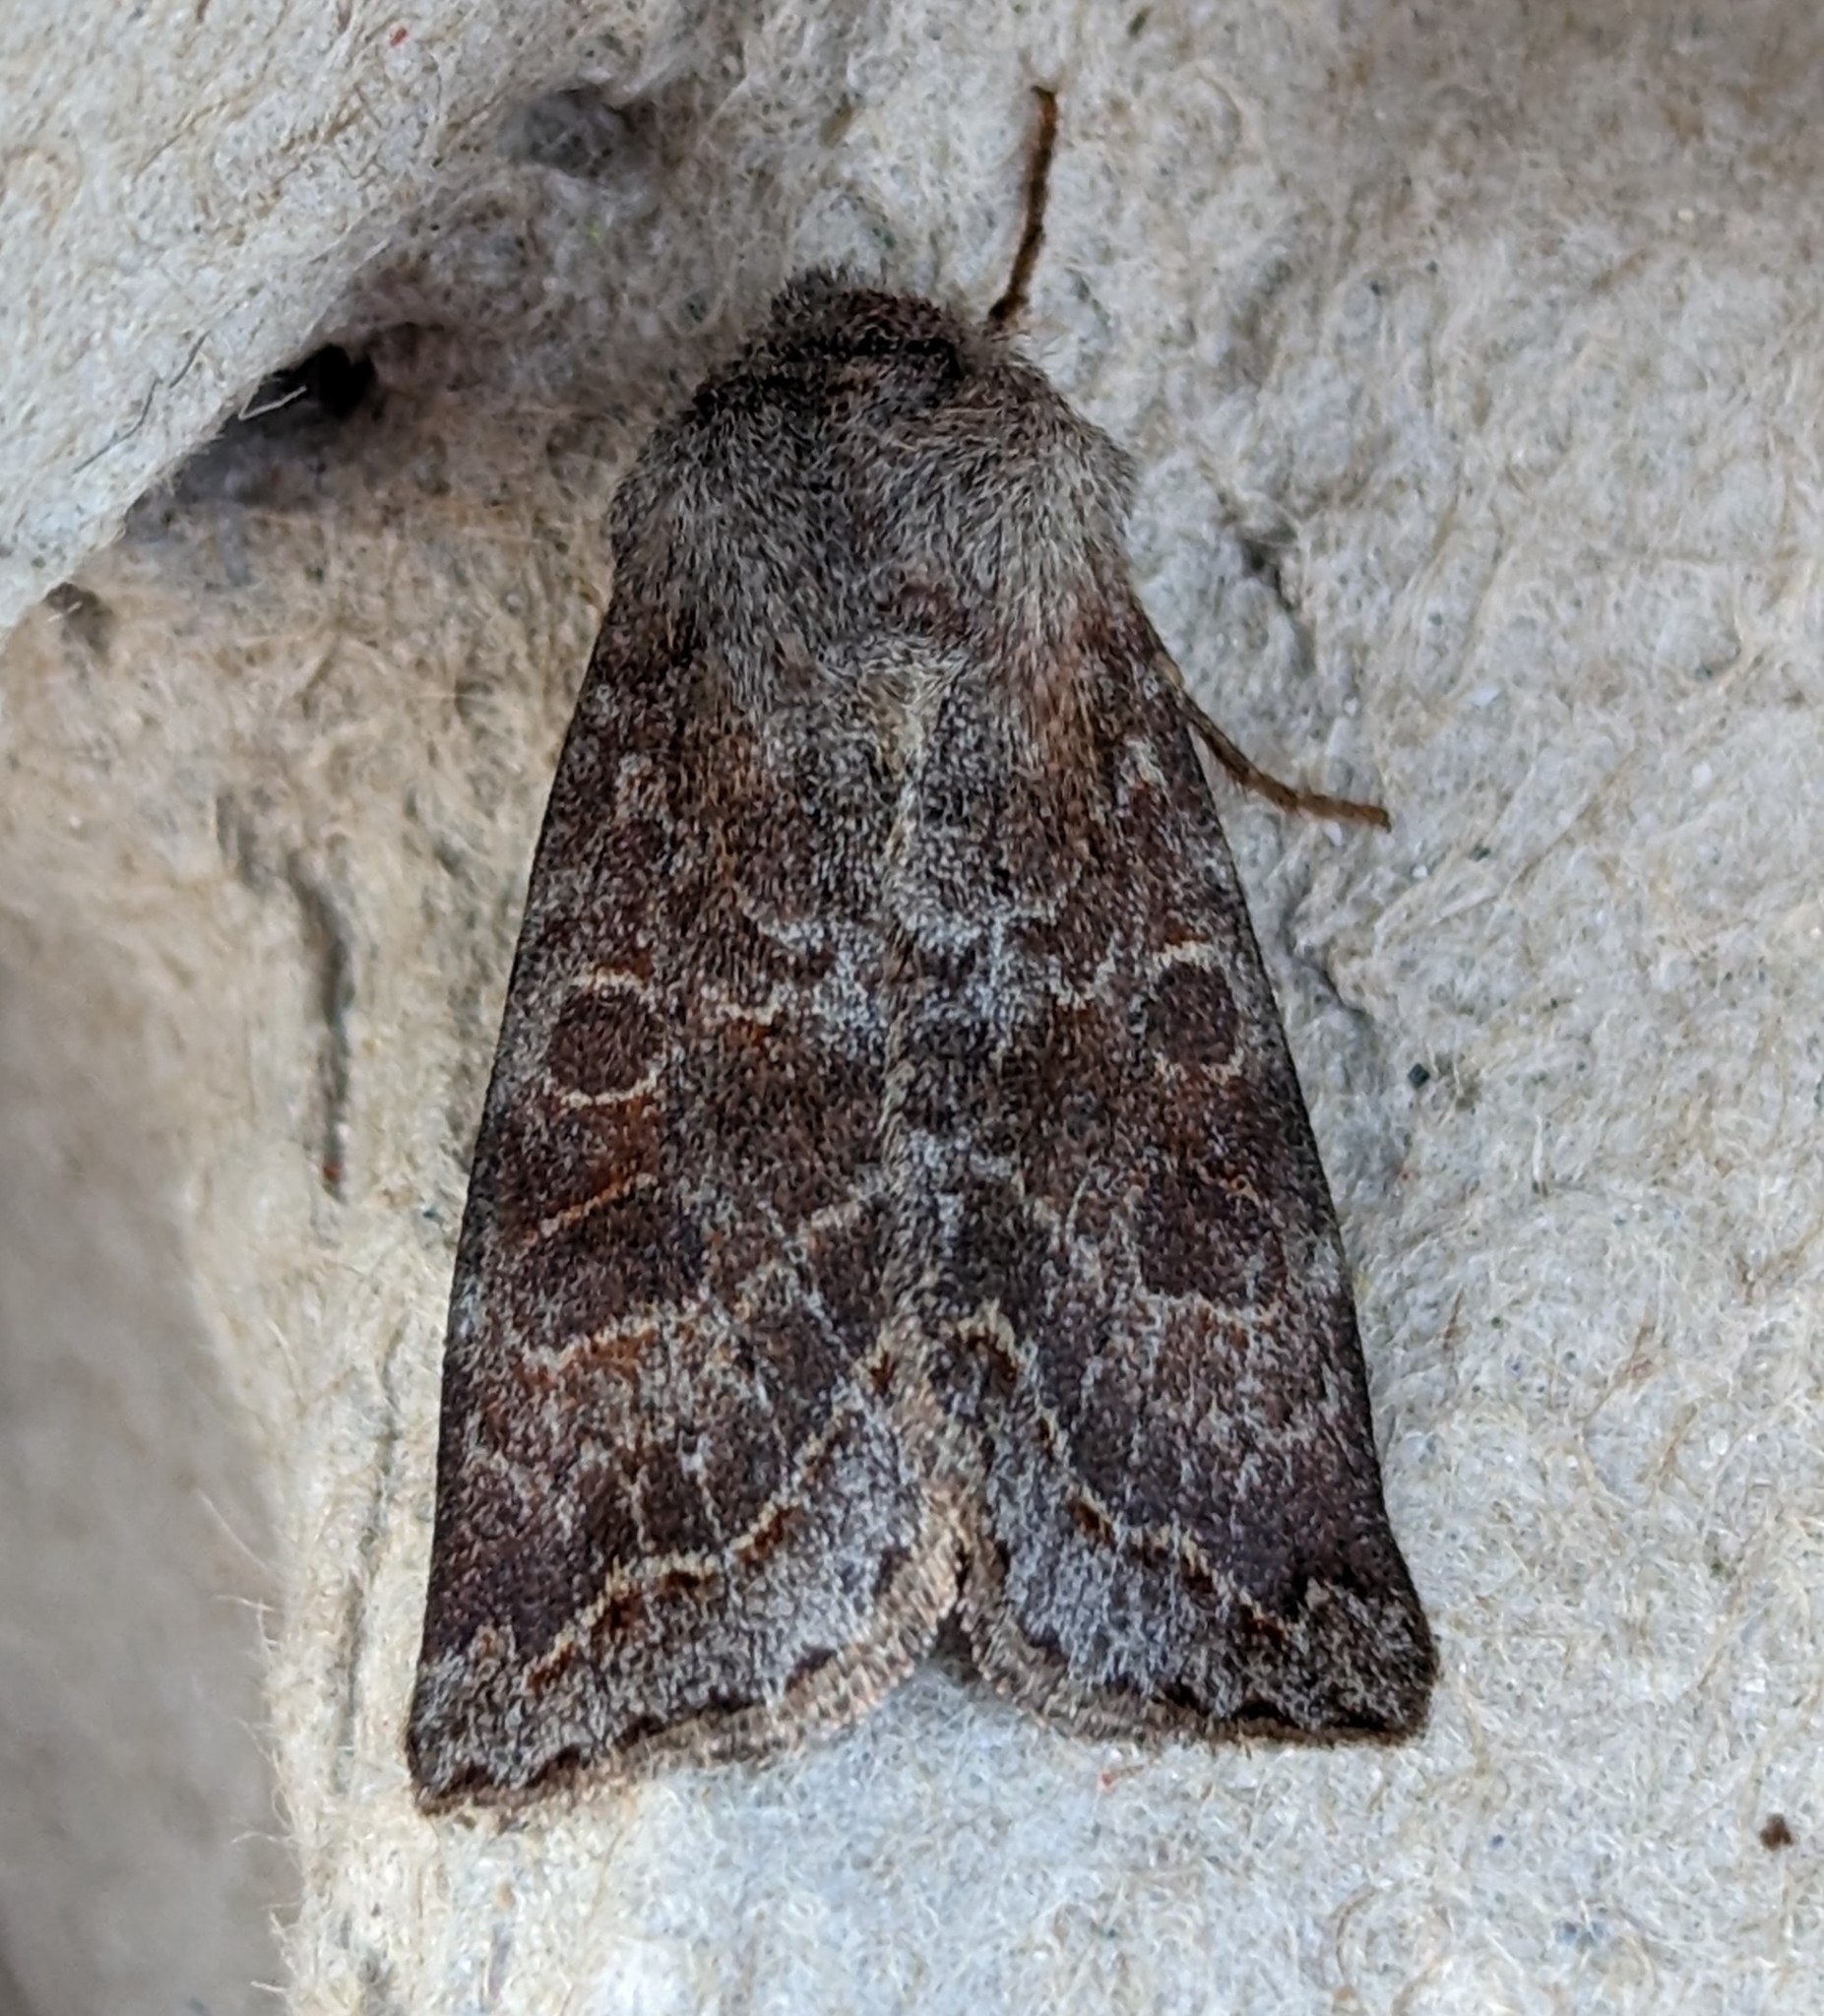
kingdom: Animalia
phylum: Arthropoda
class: Insecta
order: Lepidoptera
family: Noctuidae
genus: Orthosia
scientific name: Orthosia revicta
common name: Rusty whitesided caterpillar
